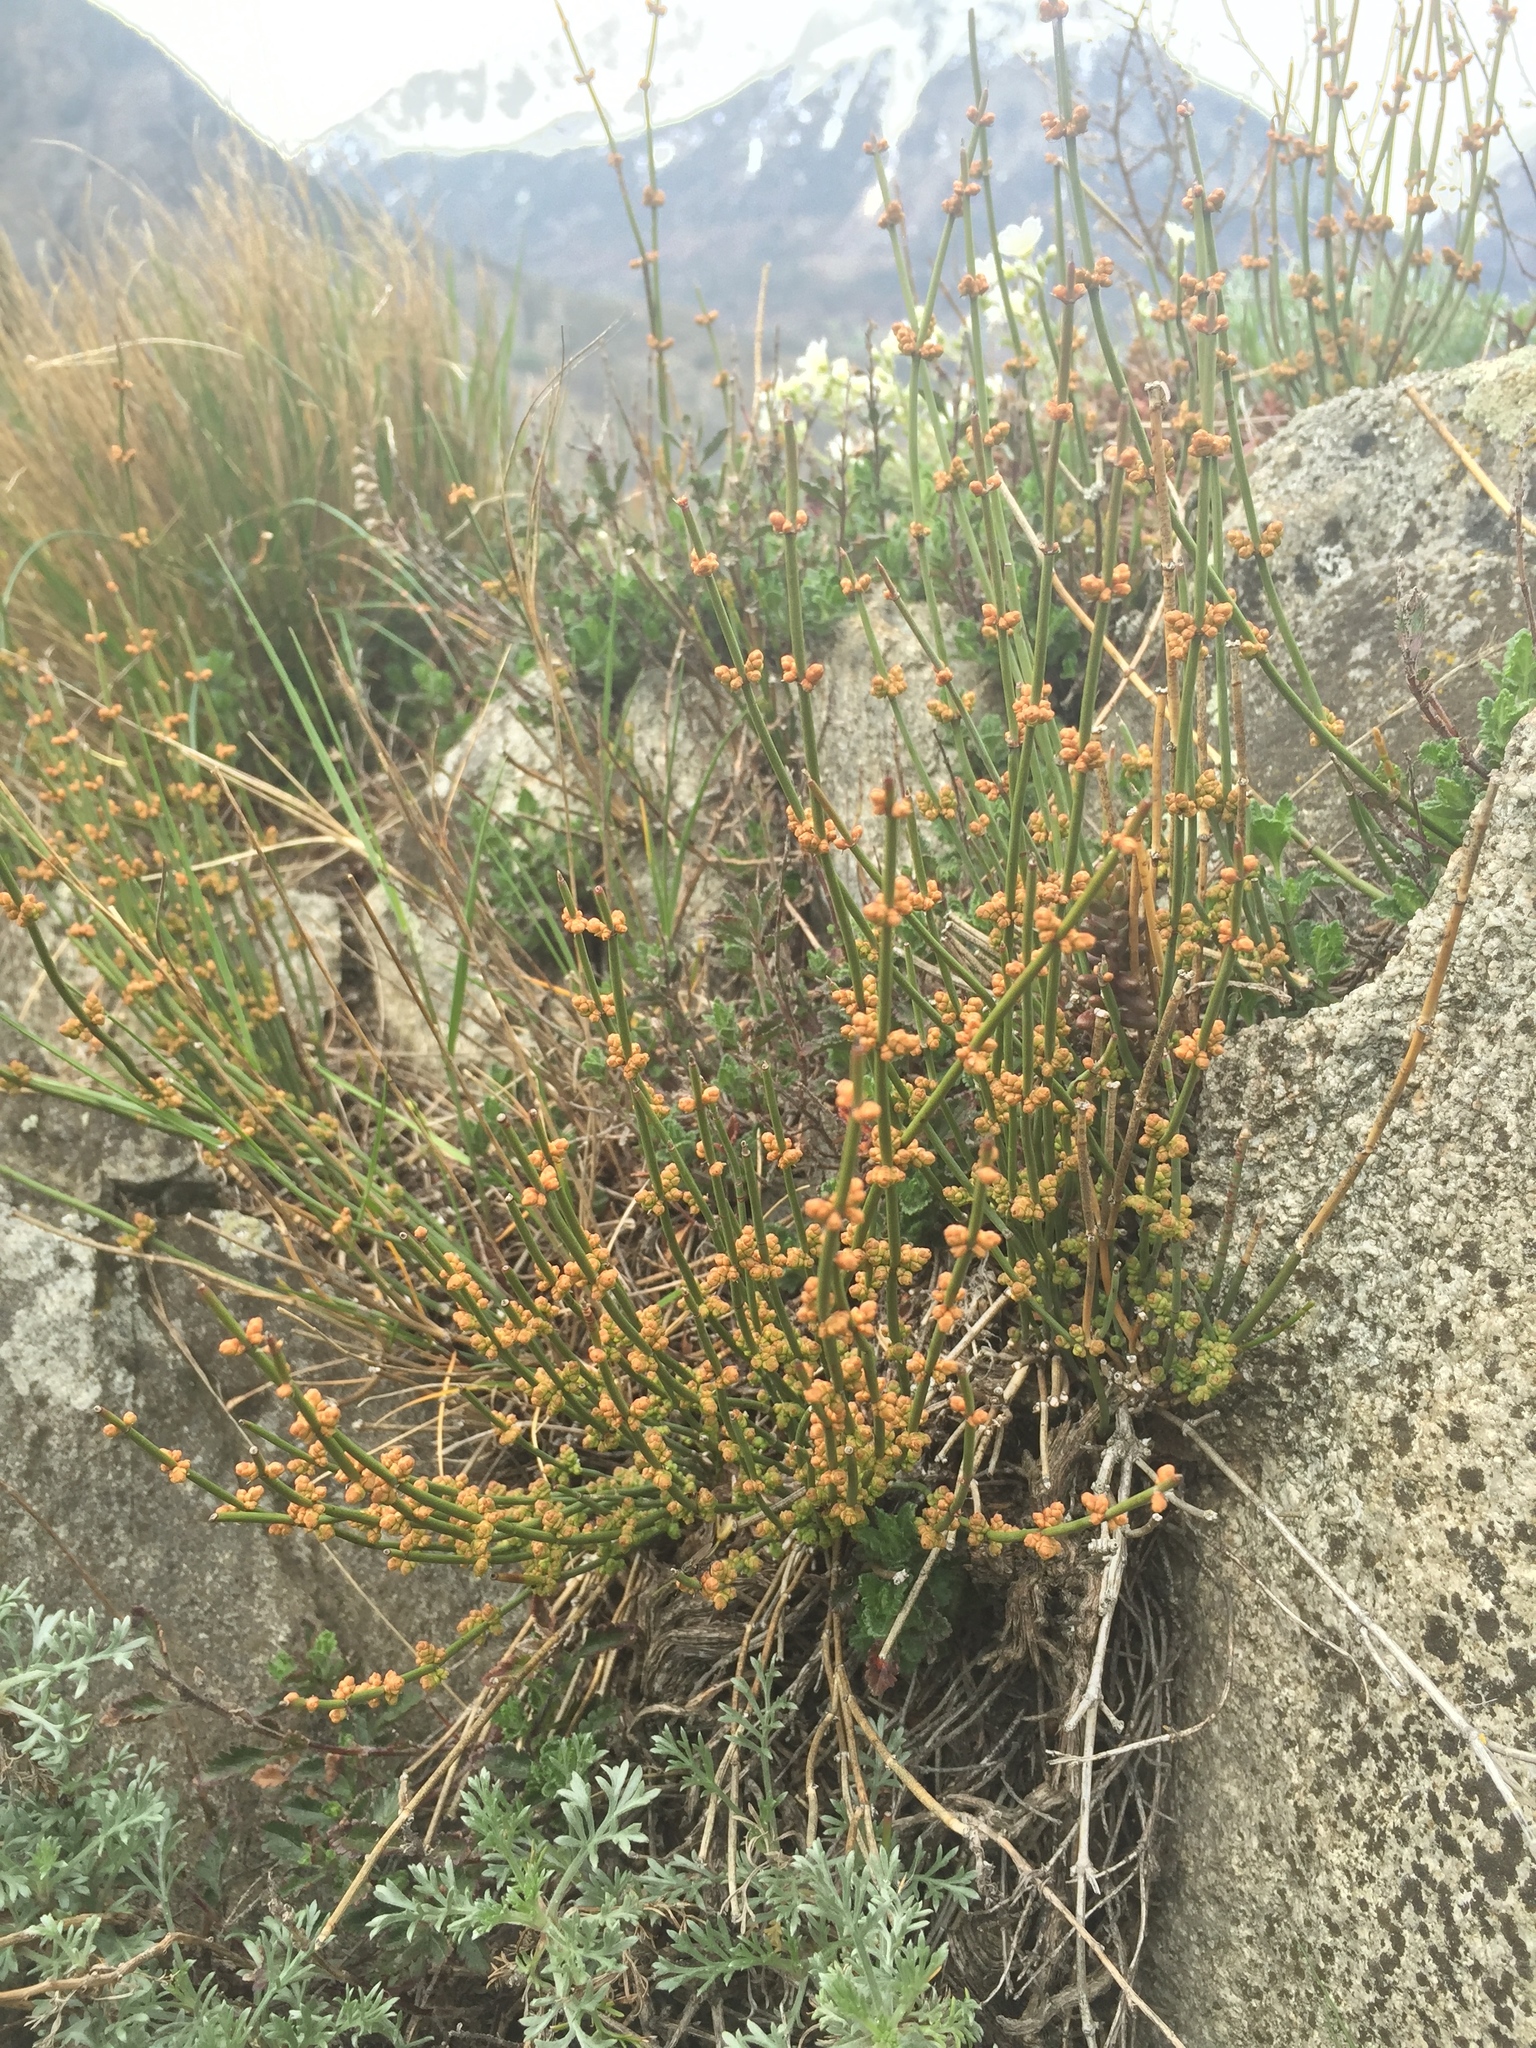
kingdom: Plantae
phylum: Tracheophyta
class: Gnetopsida
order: Ephedrales
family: Ephedraceae
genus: Ephedra
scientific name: Ephedra distachya
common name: Sea grape
